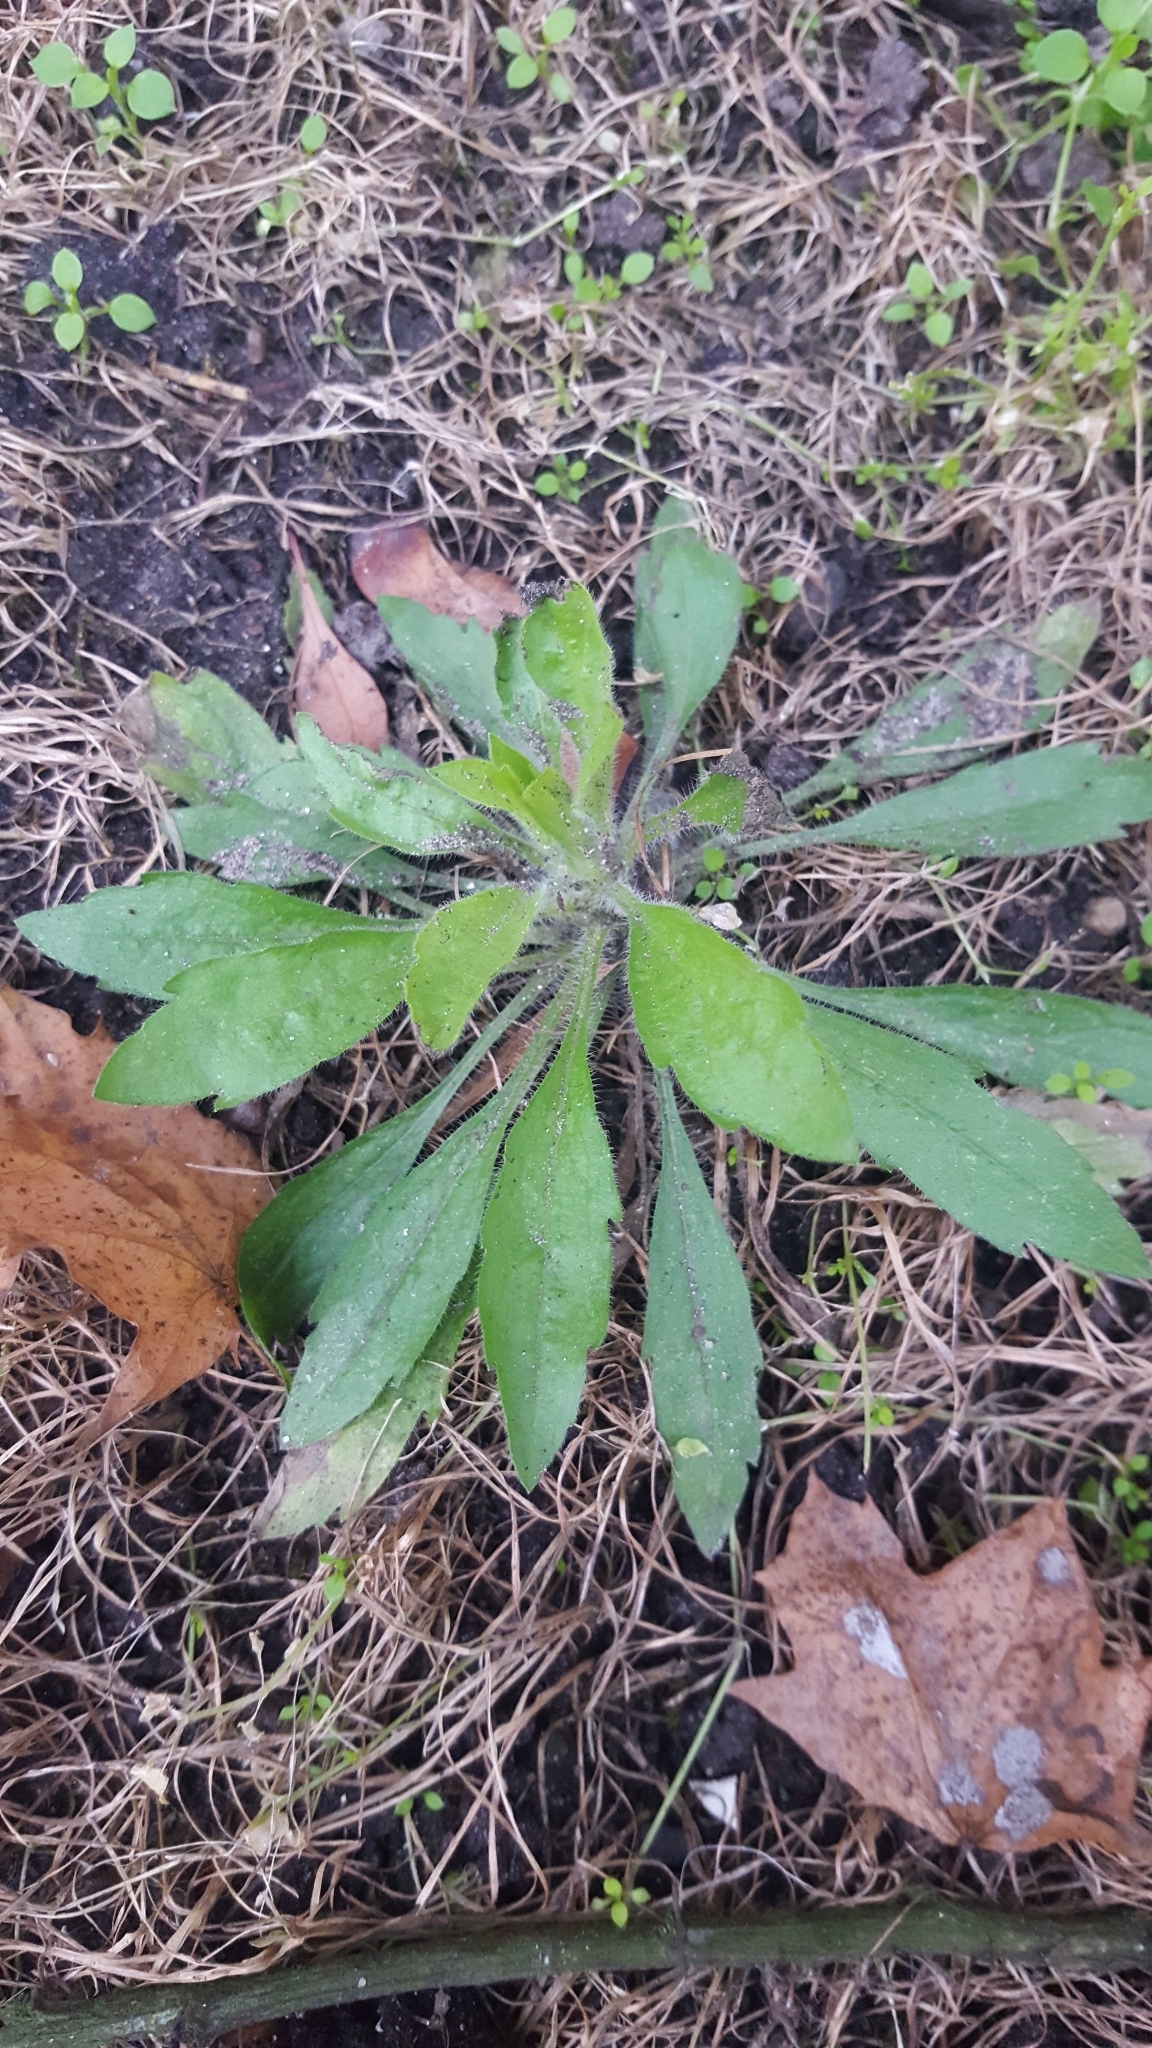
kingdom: Plantae
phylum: Tracheophyta
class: Magnoliopsida
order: Asterales
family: Asteraceae
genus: Erigeron
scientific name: Erigeron canadensis
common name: Canadian fleabane
